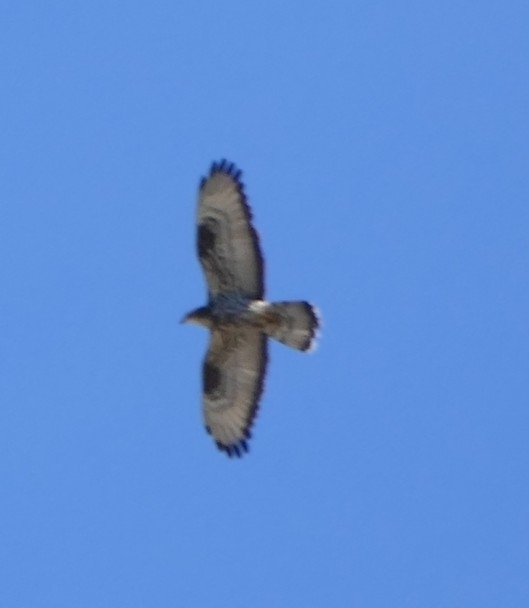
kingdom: Animalia
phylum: Chordata
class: Aves
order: Accipitriformes
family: Accipitridae
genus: Pernis
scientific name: Pernis apivorus
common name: European honey buzzard
